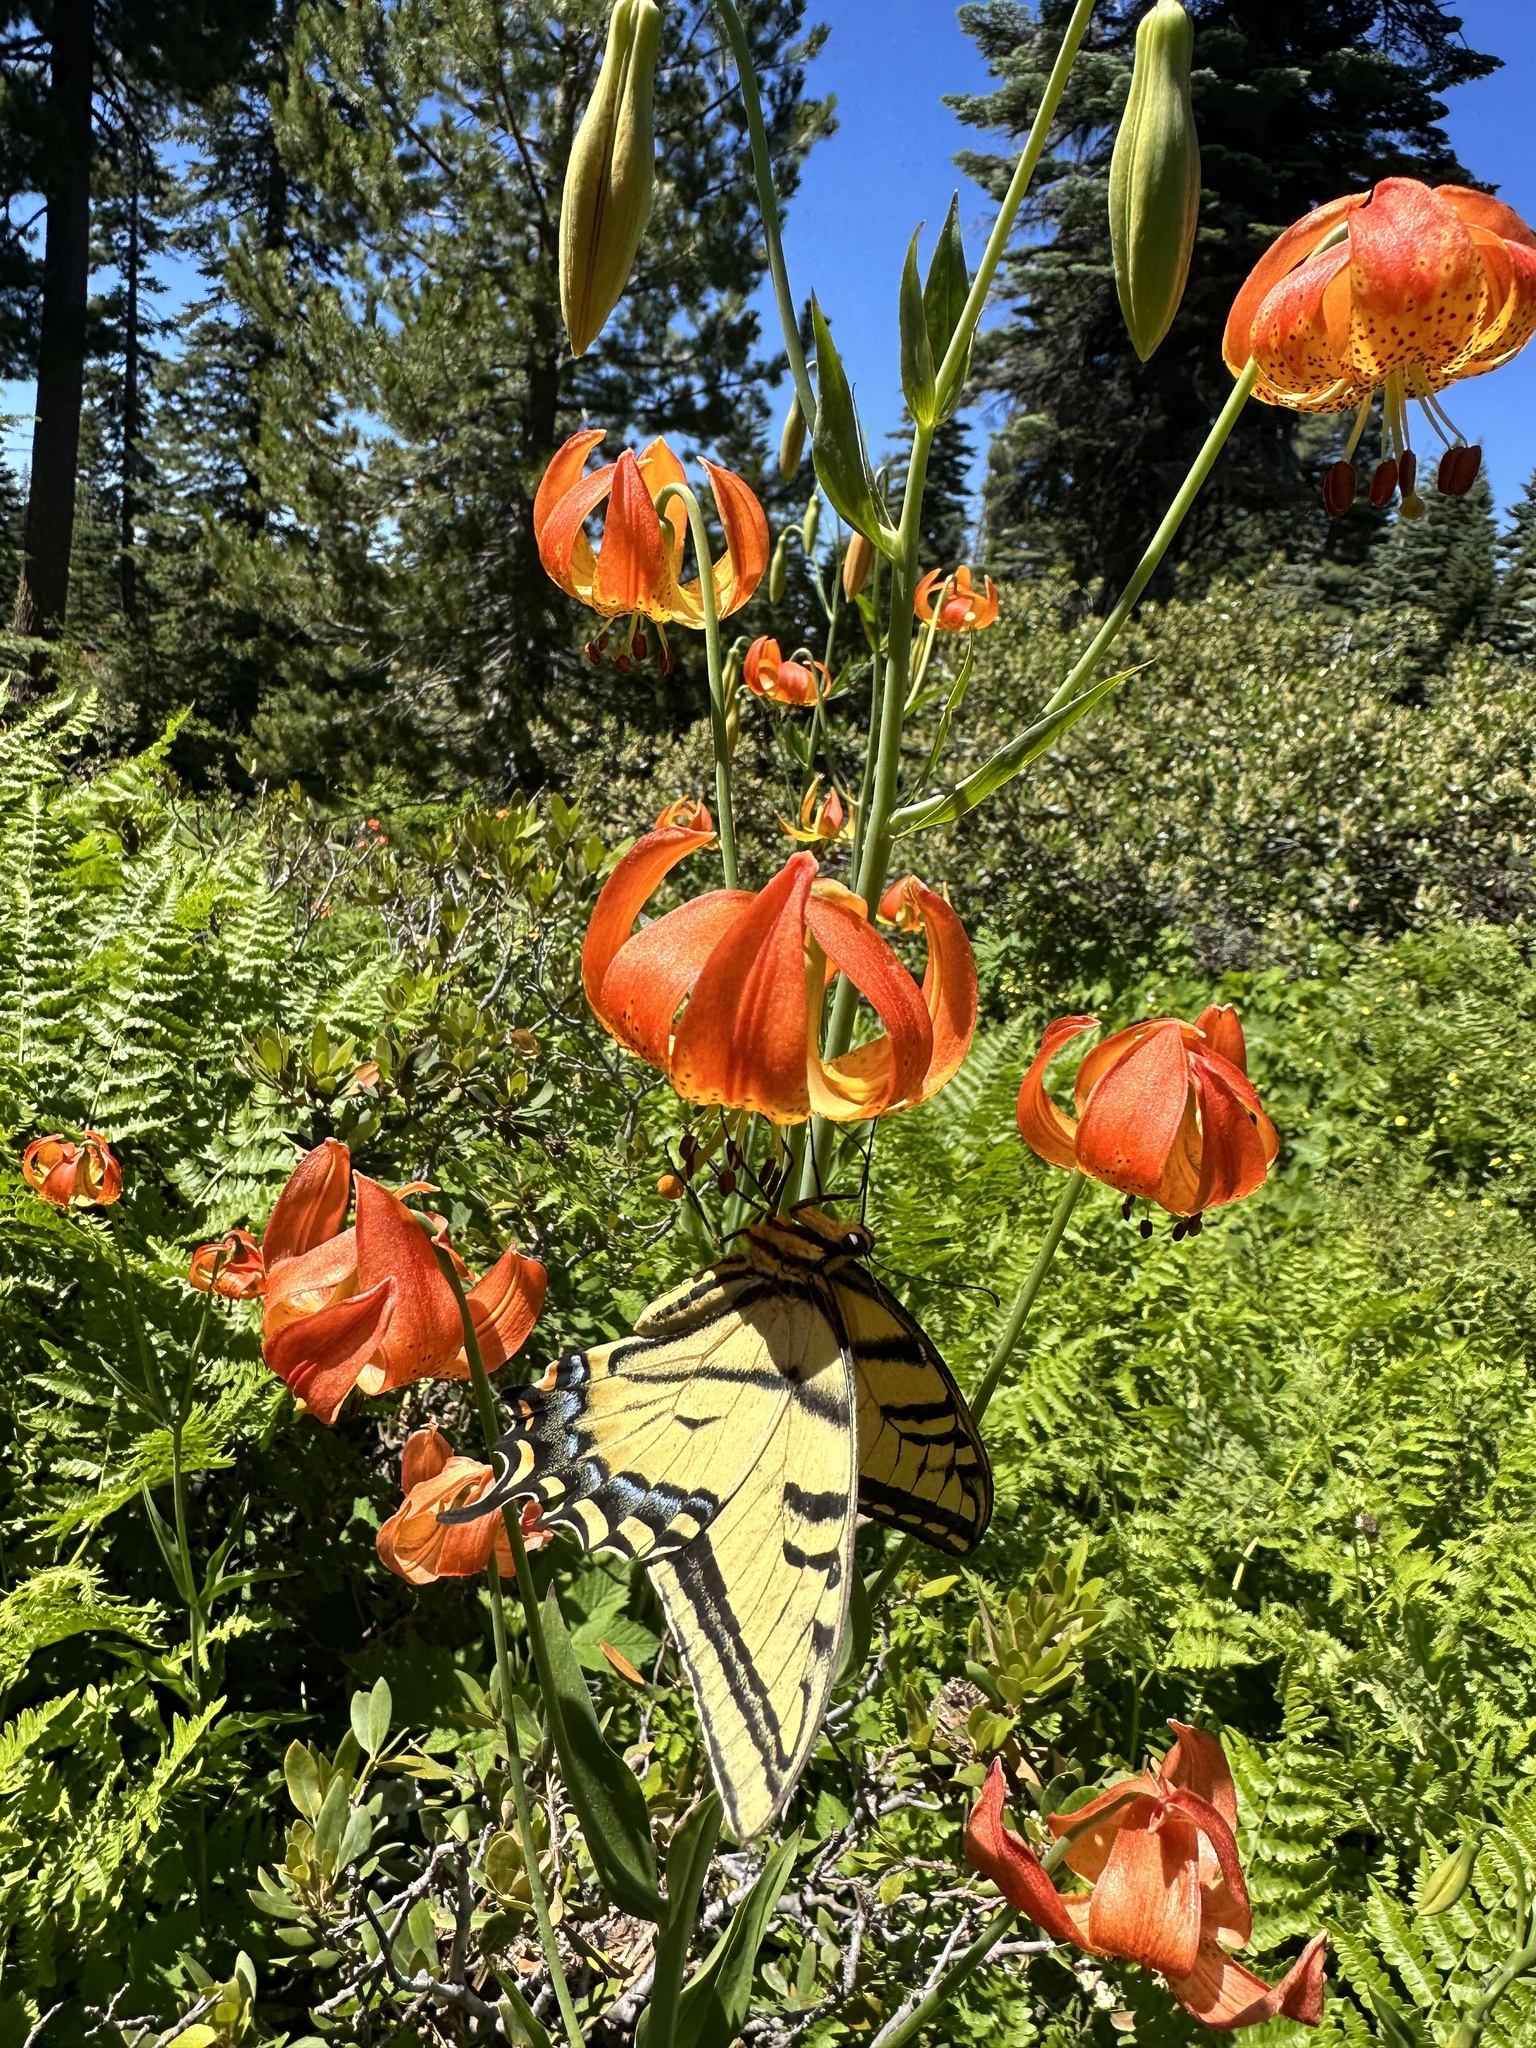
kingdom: Animalia
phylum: Arthropoda
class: Insecta
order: Lepidoptera
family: Papilionidae
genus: Papilio
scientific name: Papilio multicaudata
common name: Two-tailed tiger swallowtail
